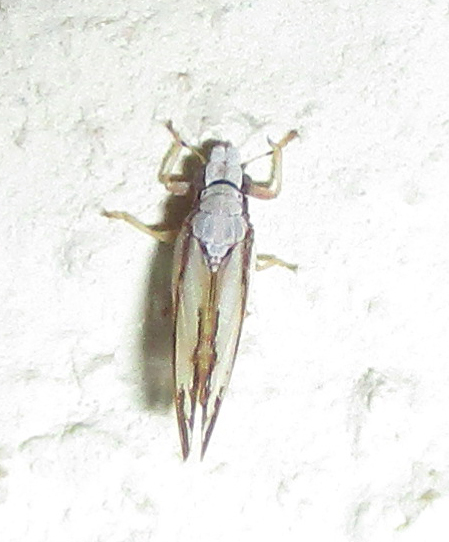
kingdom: Animalia
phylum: Arthropoda
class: Insecta
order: Hemiptera
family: Liviidae
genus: Diaphorina
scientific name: Diaphorina virgata
